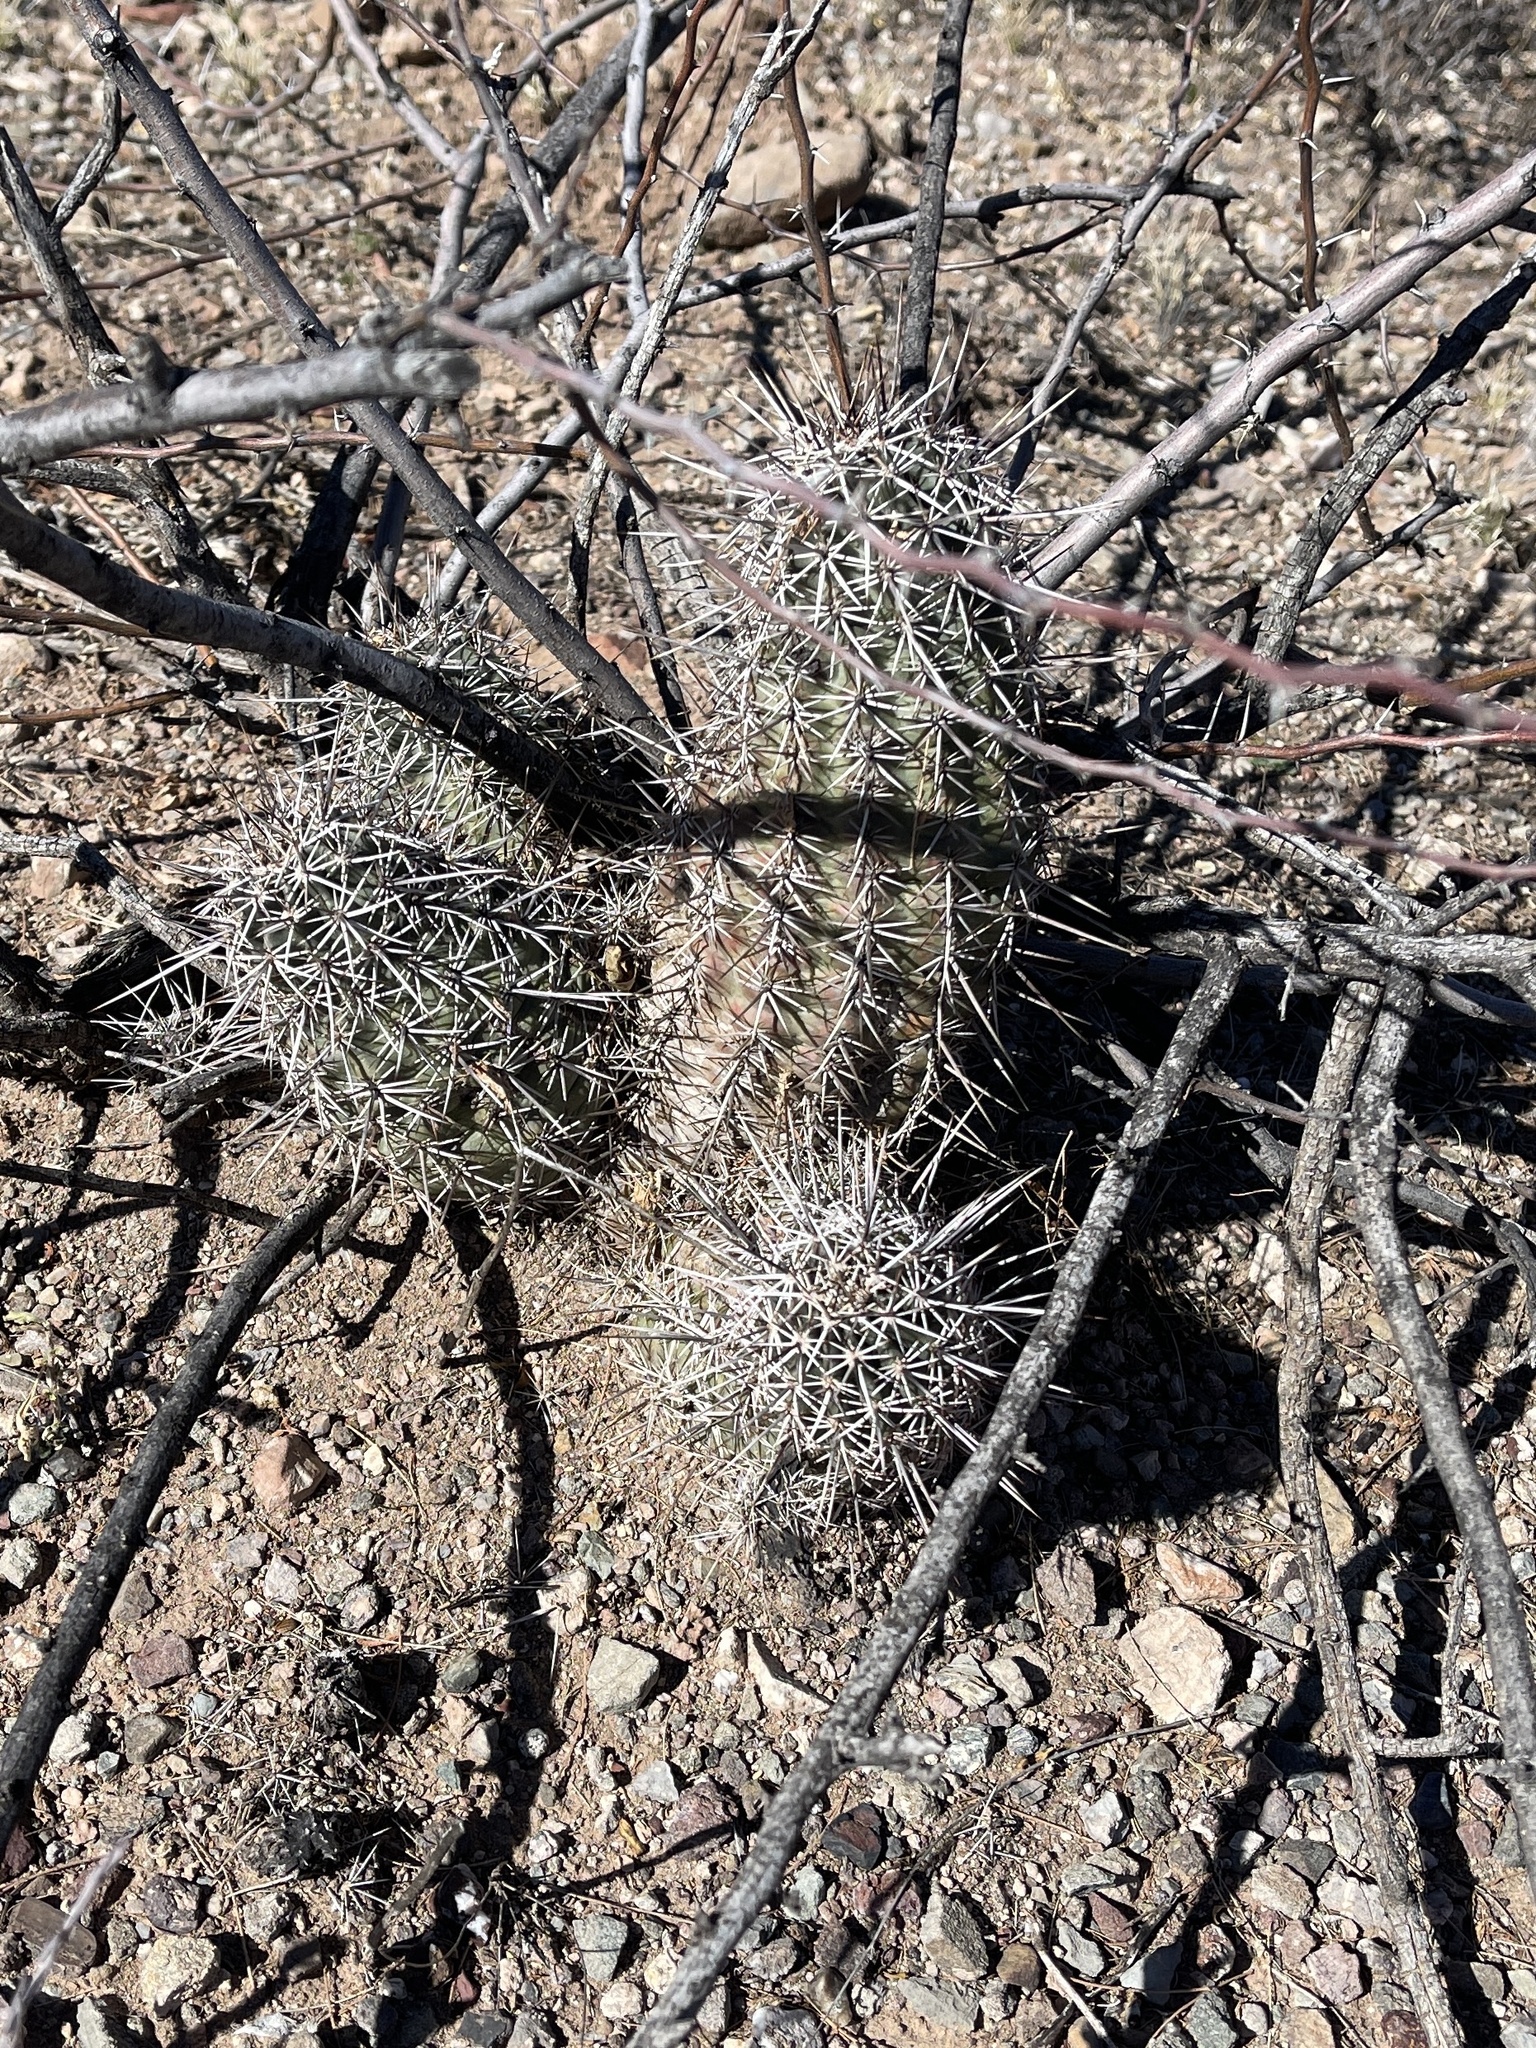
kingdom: Plantae
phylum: Tracheophyta
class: Magnoliopsida
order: Caryophyllales
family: Cactaceae
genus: Echinocereus
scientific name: Echinocereus fasciculatus
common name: Bundle hedgehog
